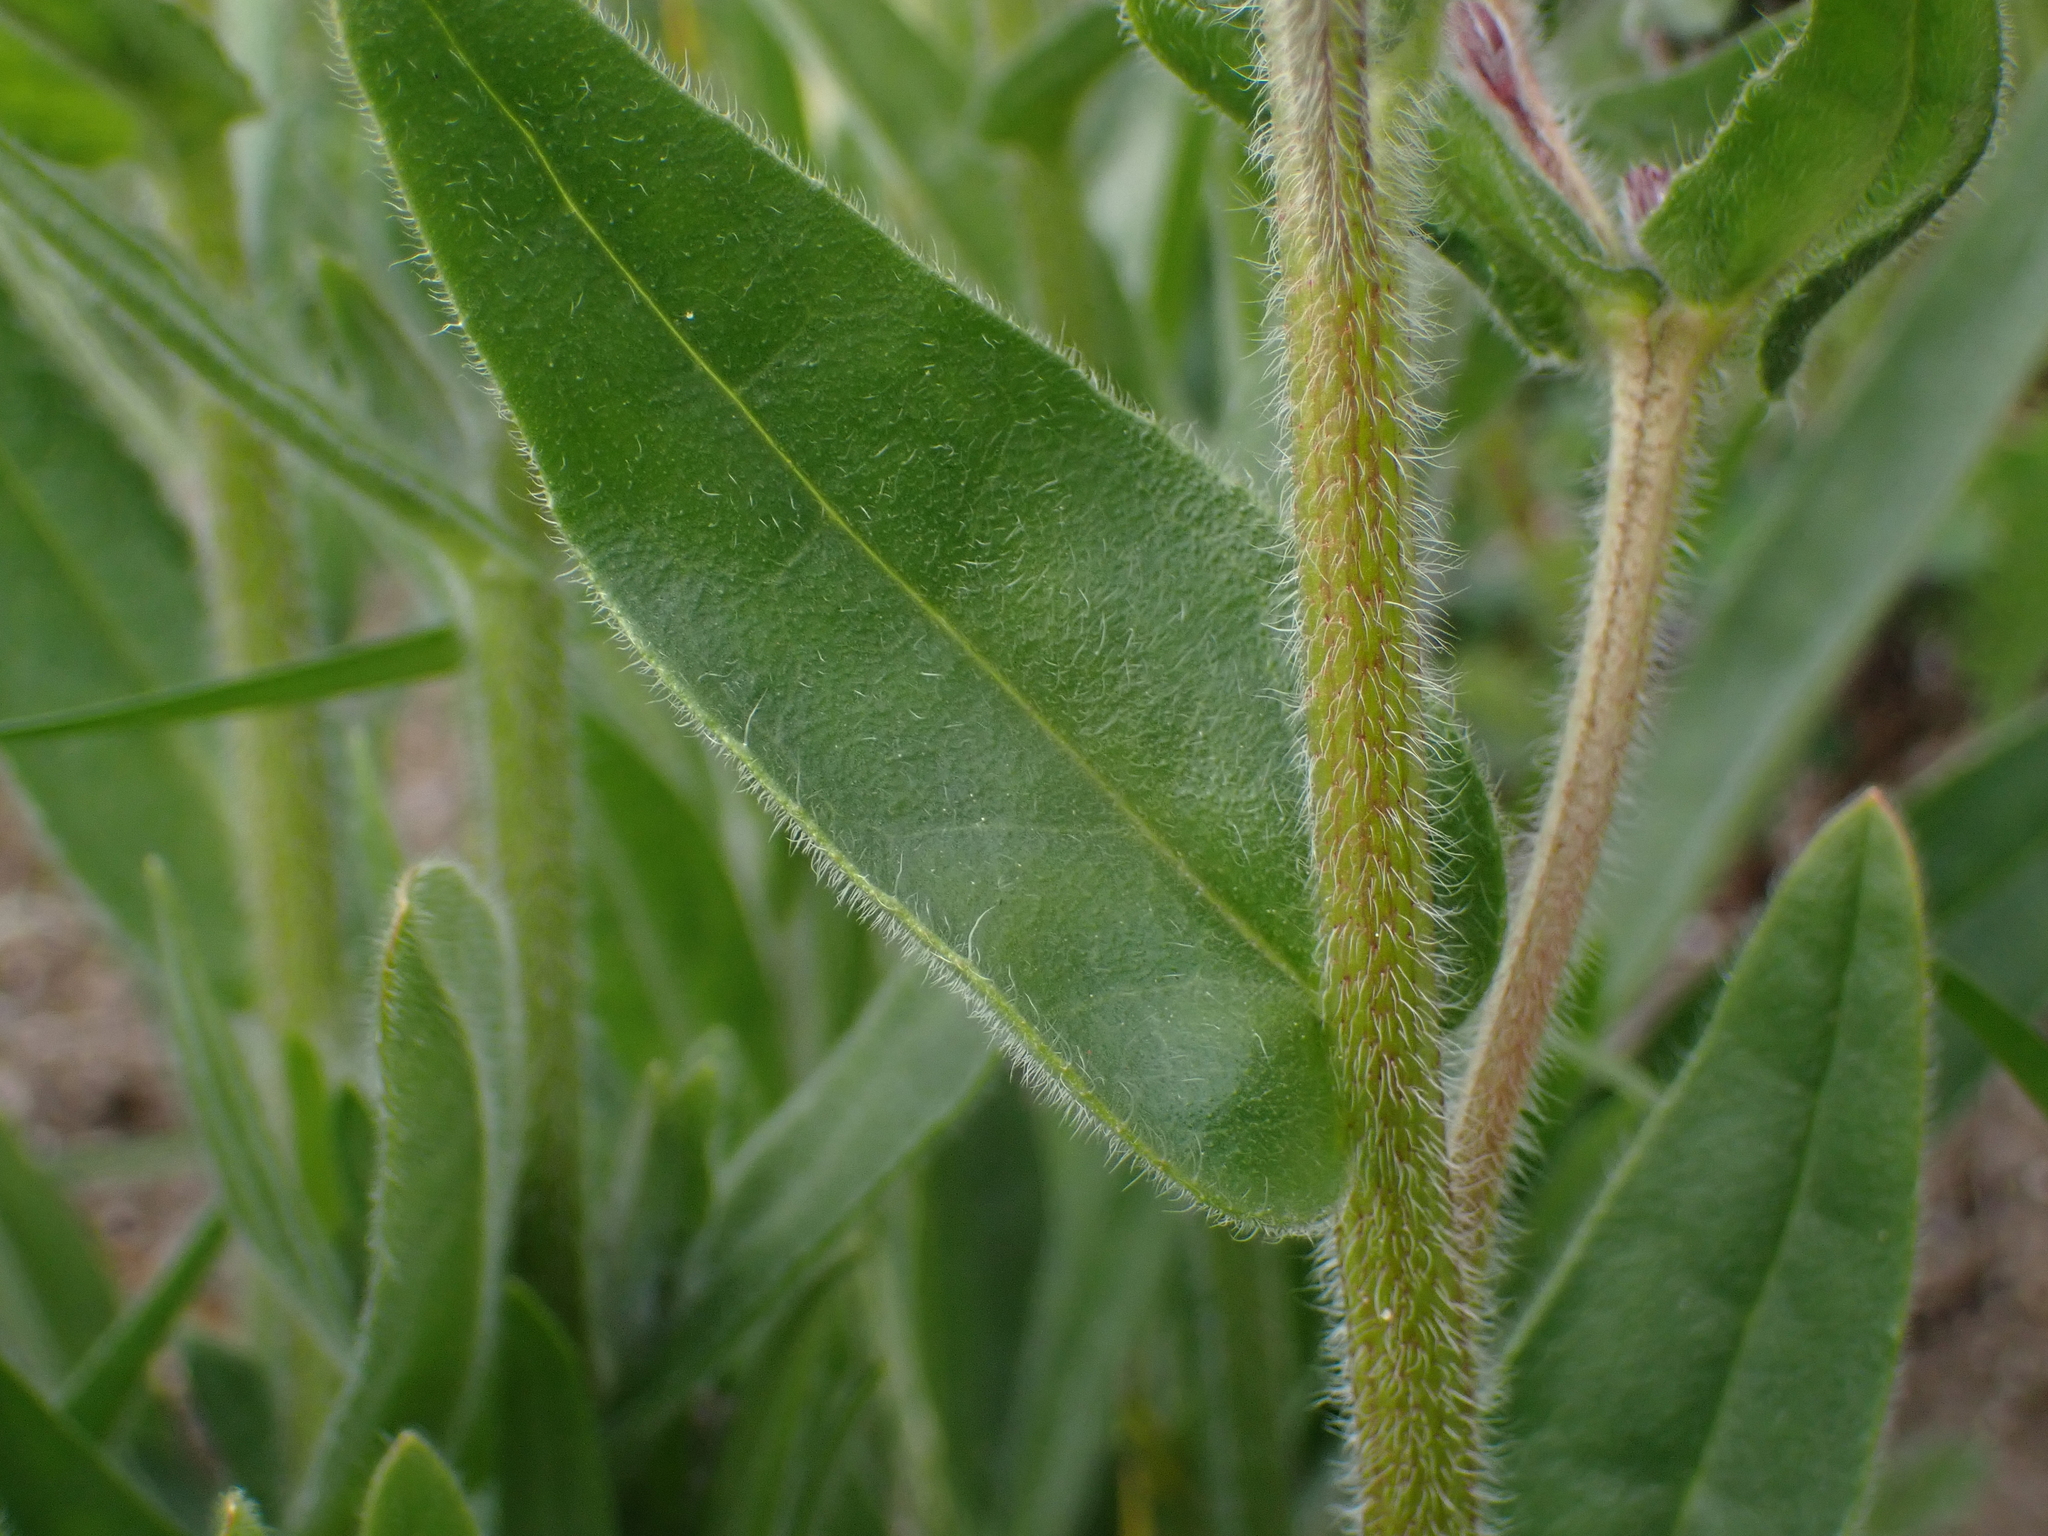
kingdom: Plantae
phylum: Tracheophyta
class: Magnoliopsida
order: Boraginales
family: Boraginaceae
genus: Anchusa
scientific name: Anchusa officinalis
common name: Alkanet
